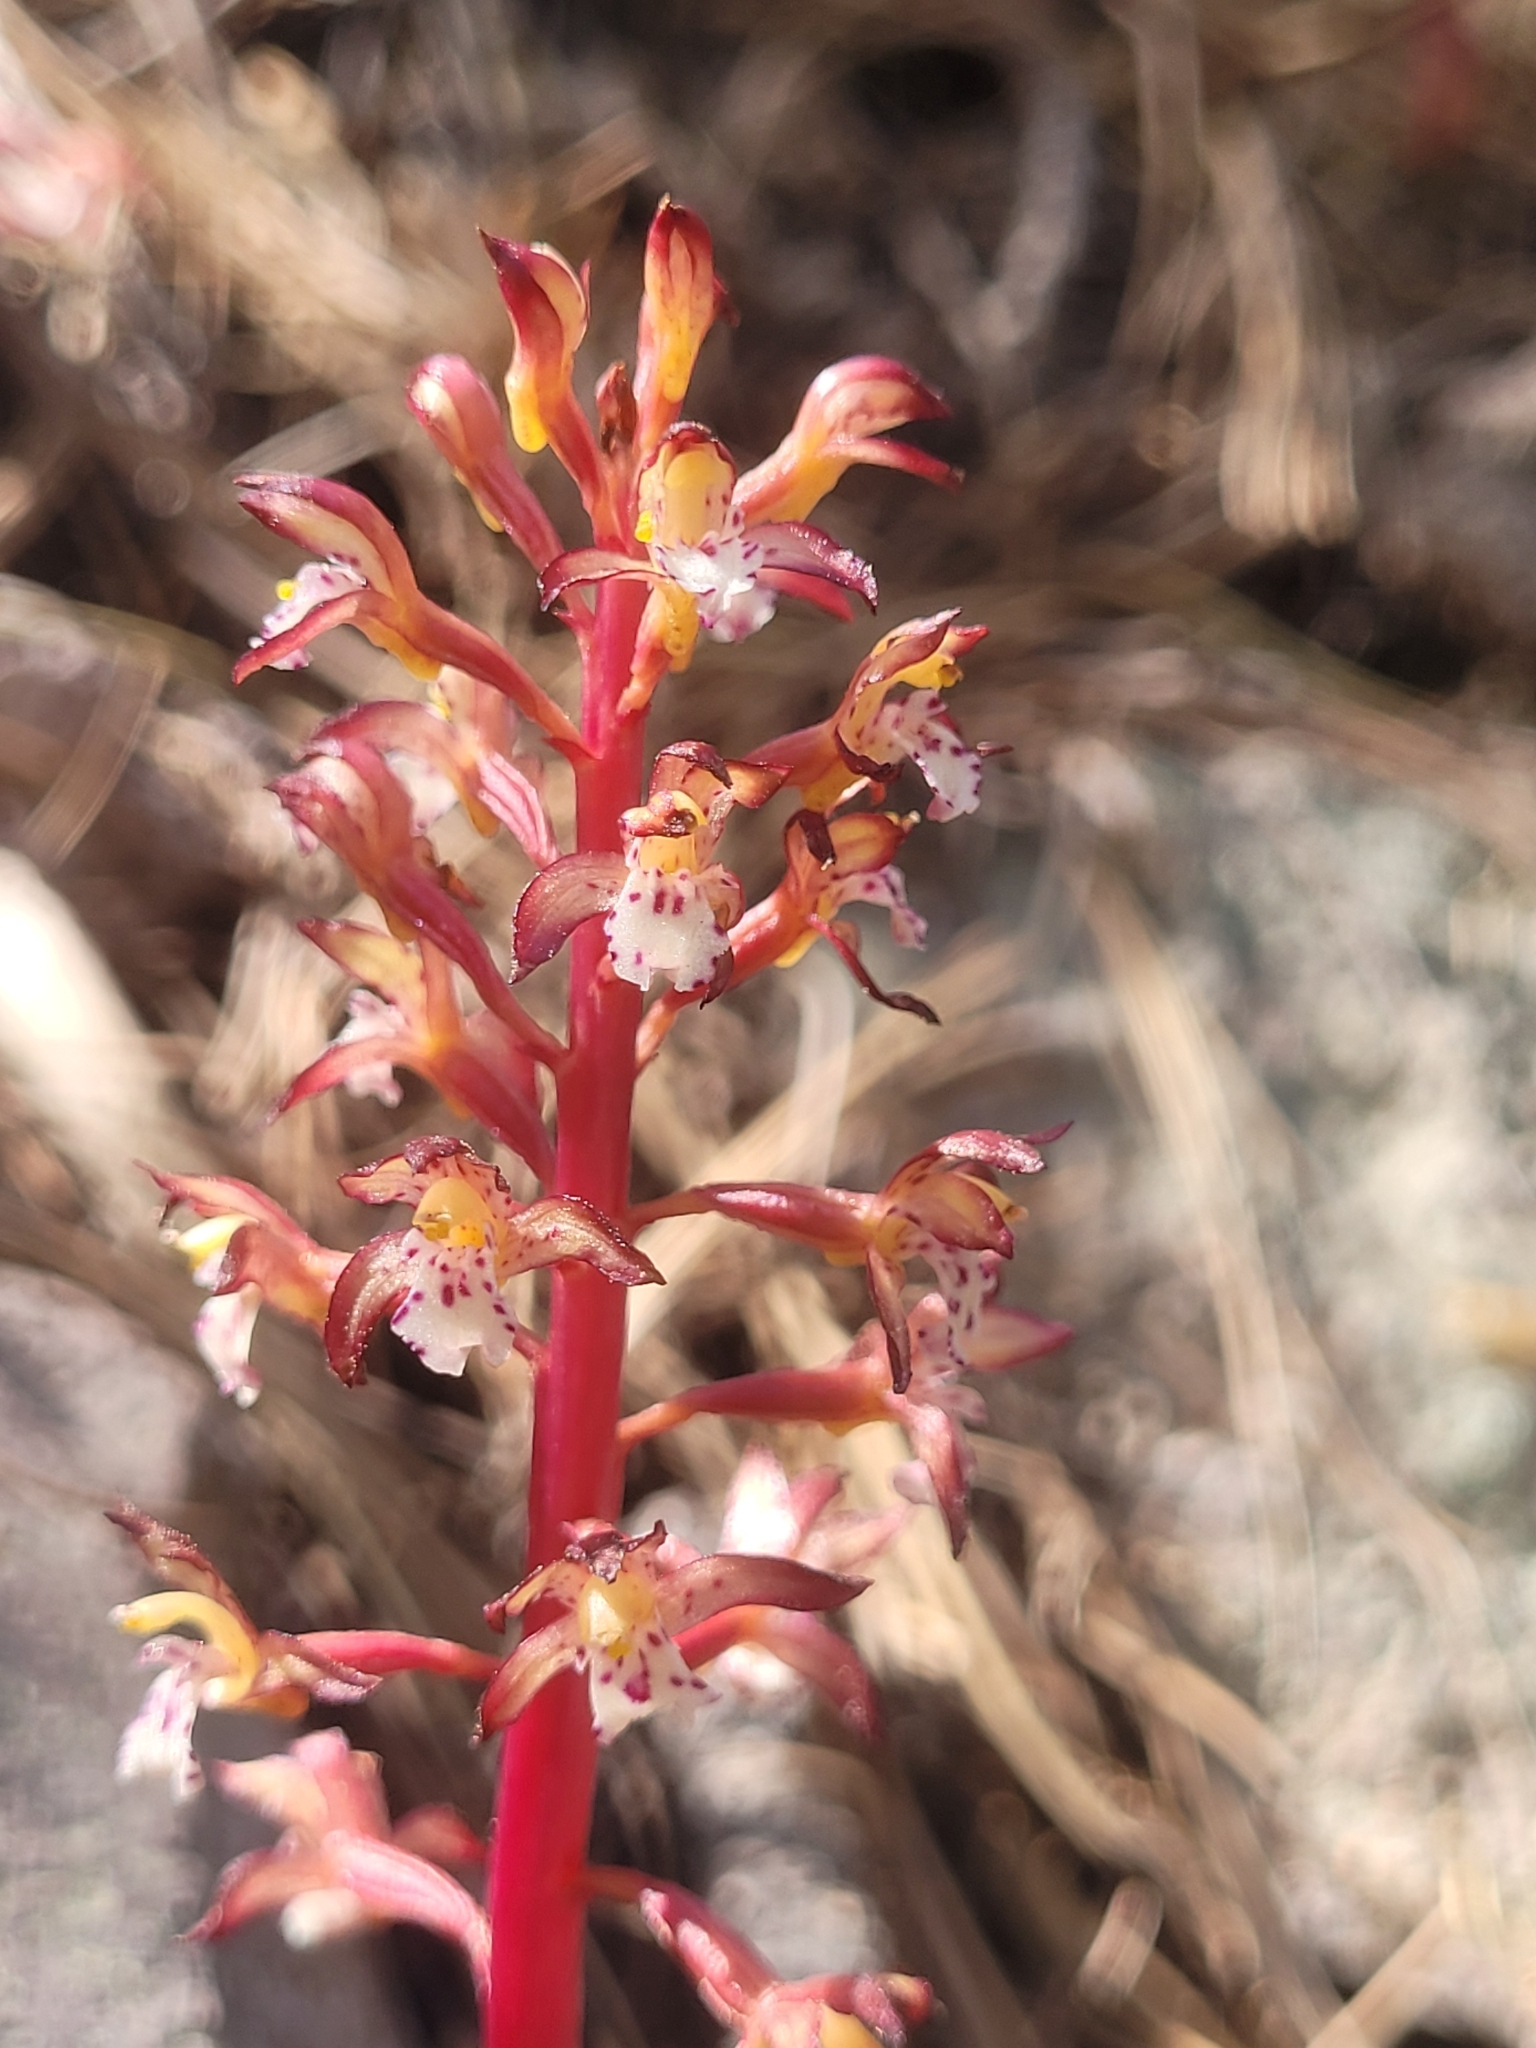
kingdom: Plantae
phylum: Tracheophyta
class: Liliopsida
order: Asparagales
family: Orchidaceae
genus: Corallorhiza
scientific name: Corallorhiza maculata
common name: Spotted coralroot
